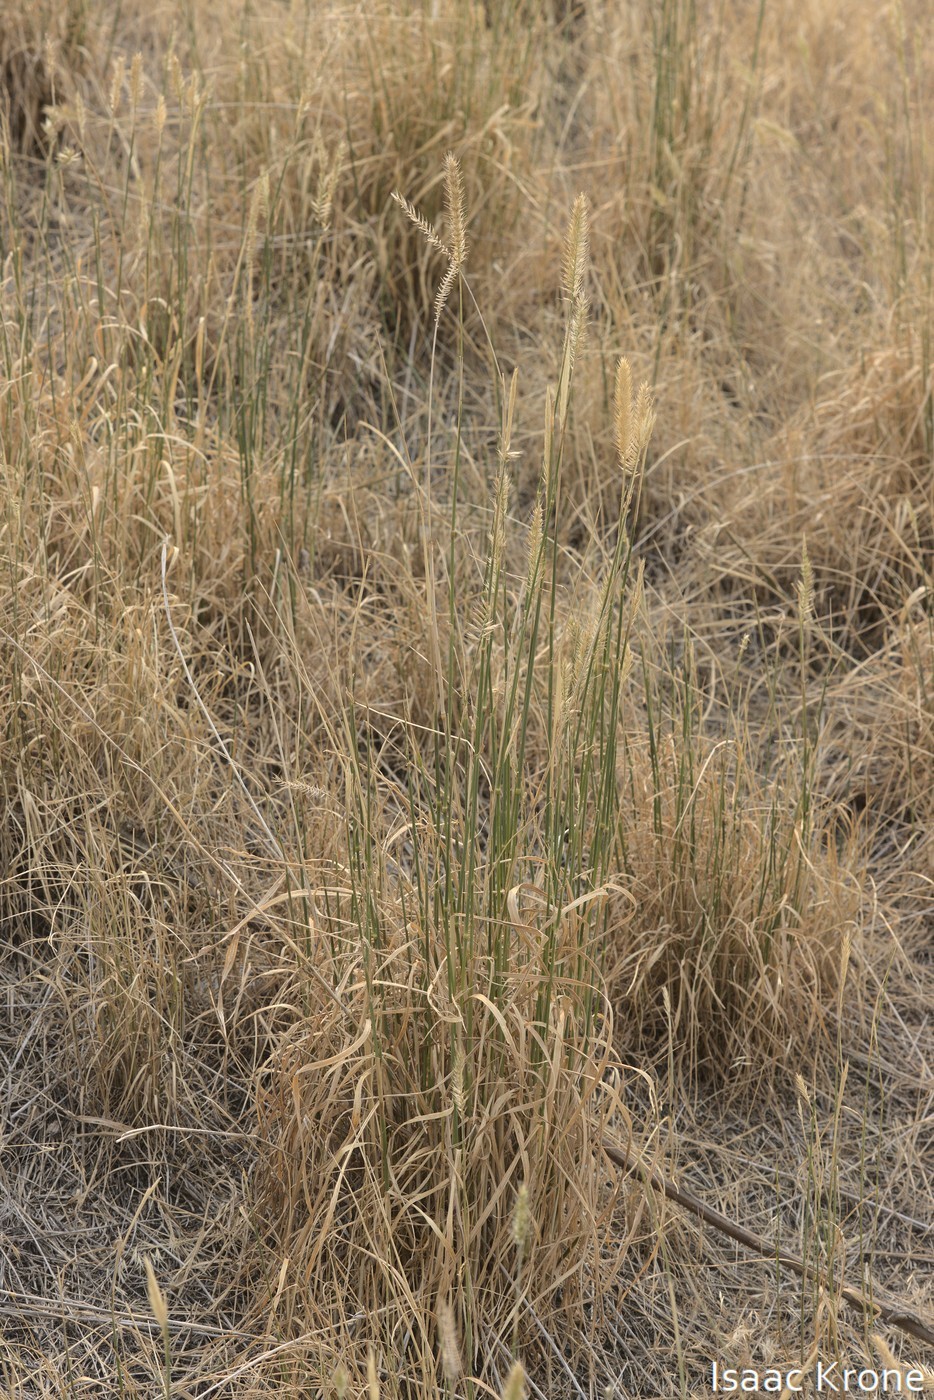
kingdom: Plantae
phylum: Tracheophyta
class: Liliopsida
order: Poales
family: Poaceae
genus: Agropyron
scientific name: Agropyron cristatum
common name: Crested wheatgrass
